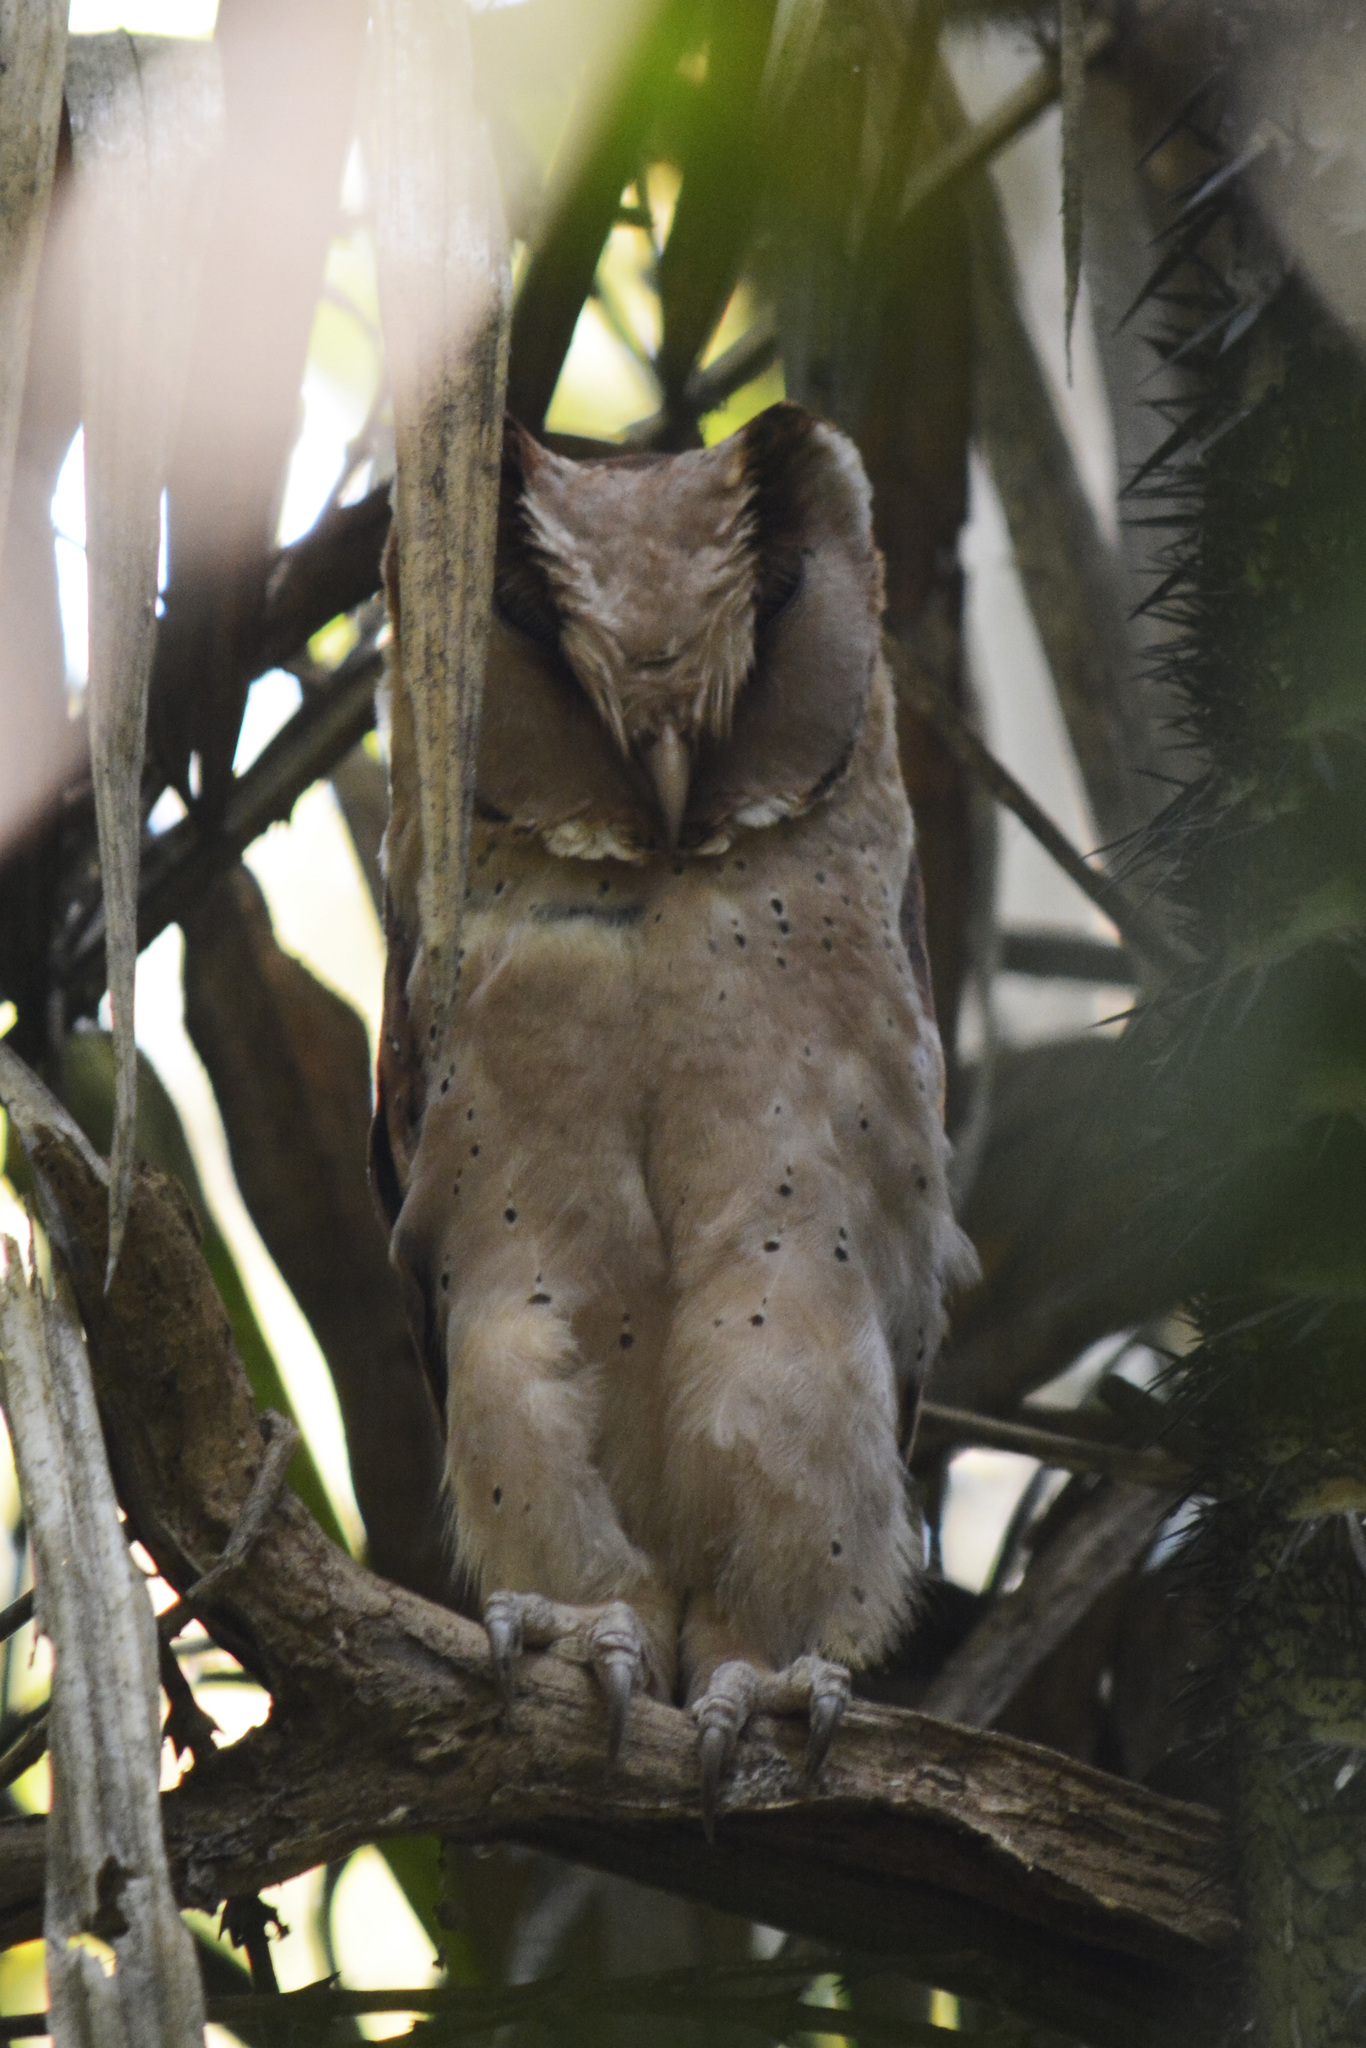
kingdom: Animalia
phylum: Chordata
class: Aves
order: Strigiformes
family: Tytonidae
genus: Phodilus
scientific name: Phodilus assimilis
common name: Sri lanka bay-owl
